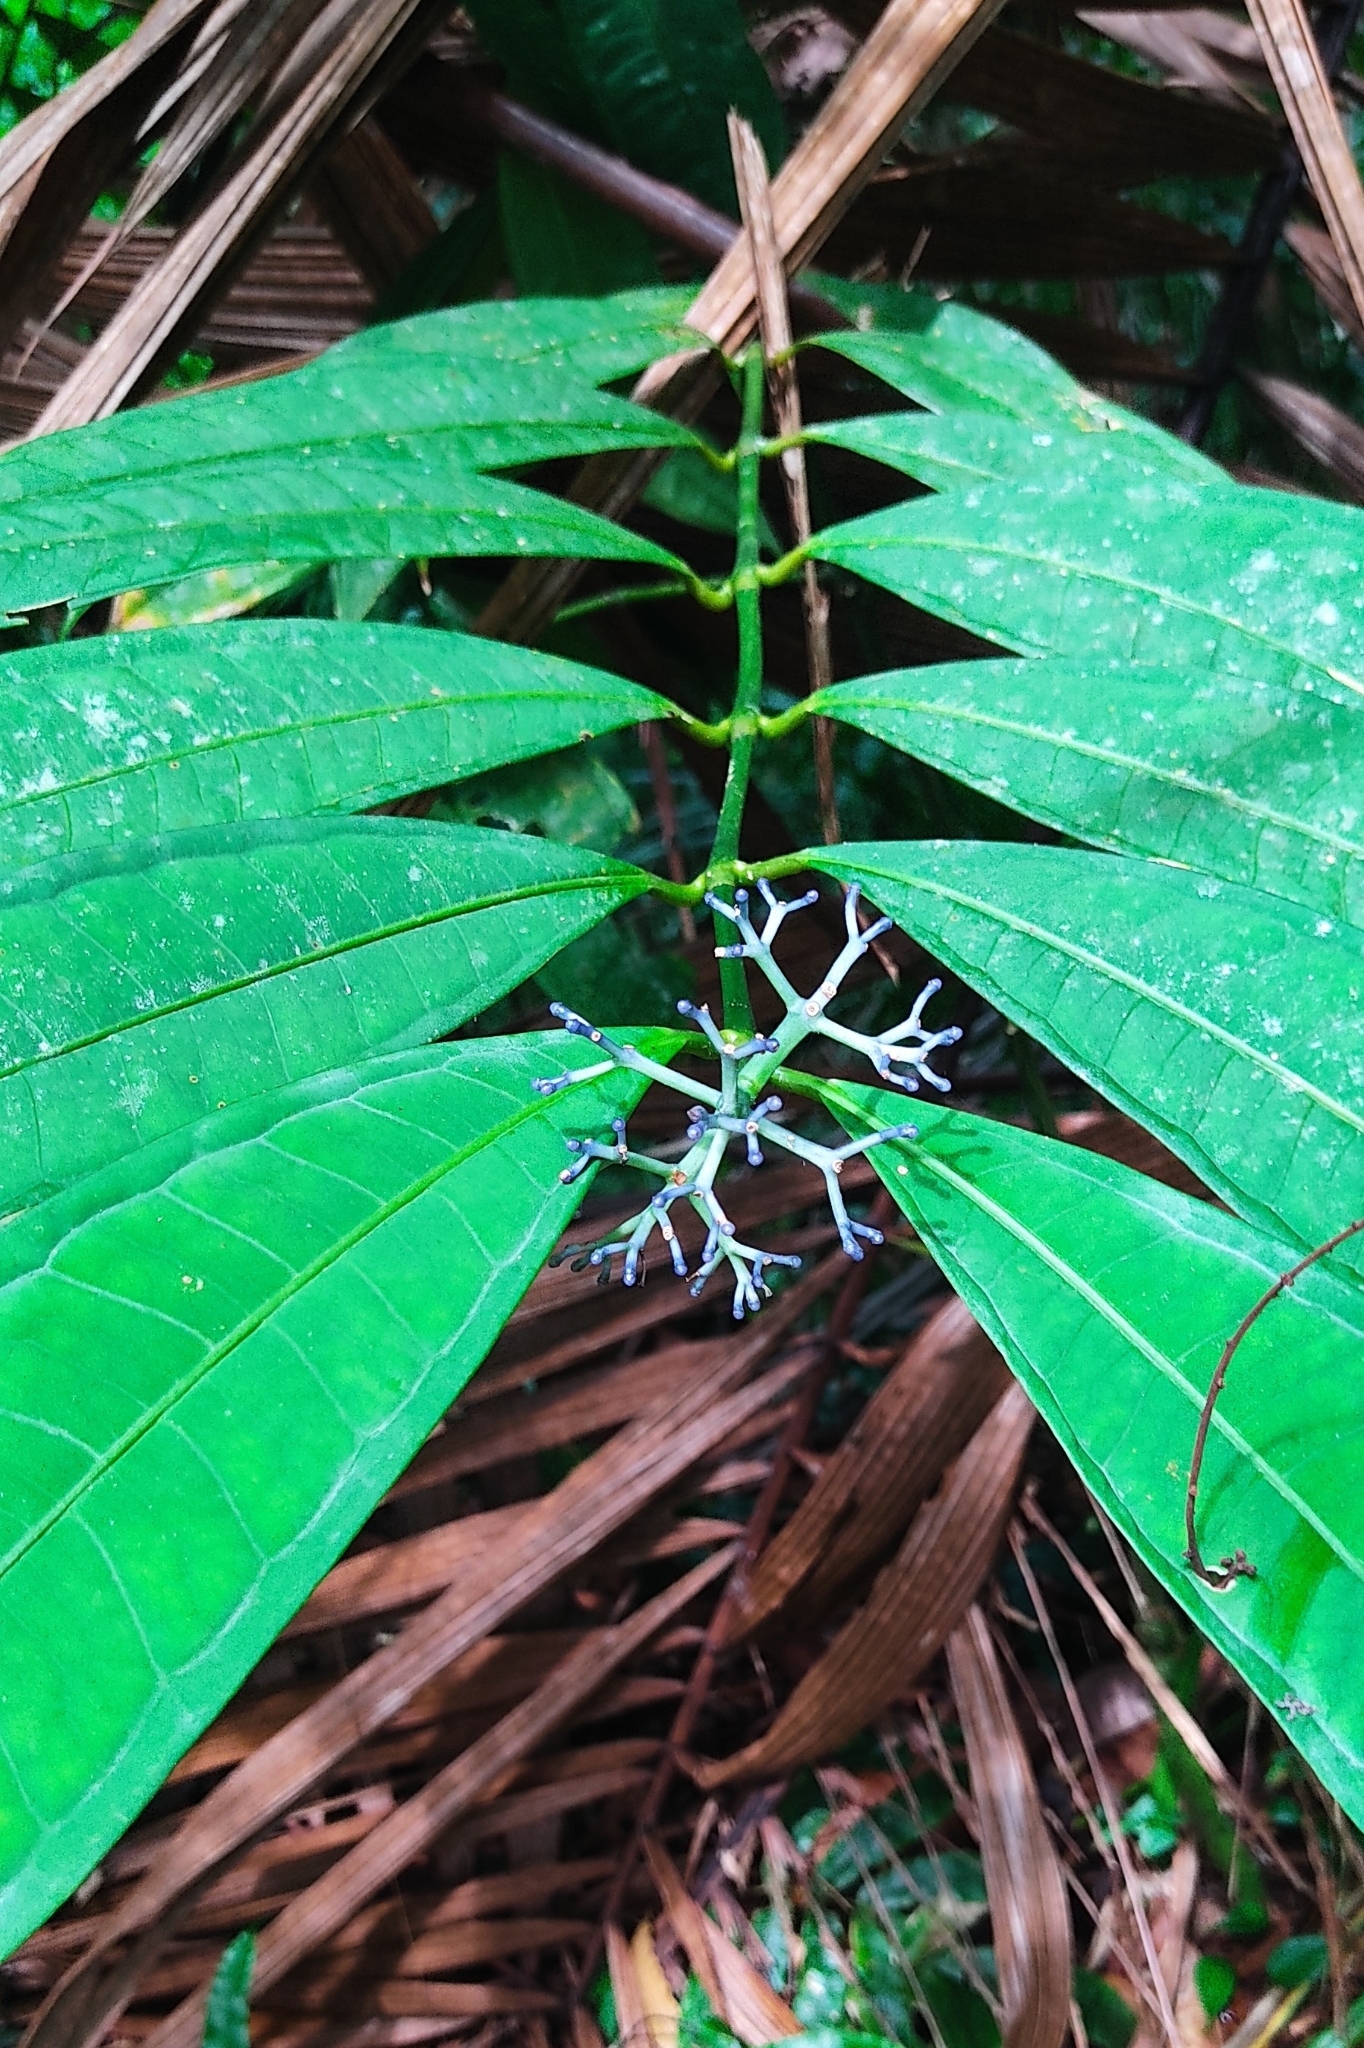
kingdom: Plantae
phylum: Tracheophyta
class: Magnoliopsida
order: Gentianales
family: Rubiaceae
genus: Faramea
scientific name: Faramea suerrensis
